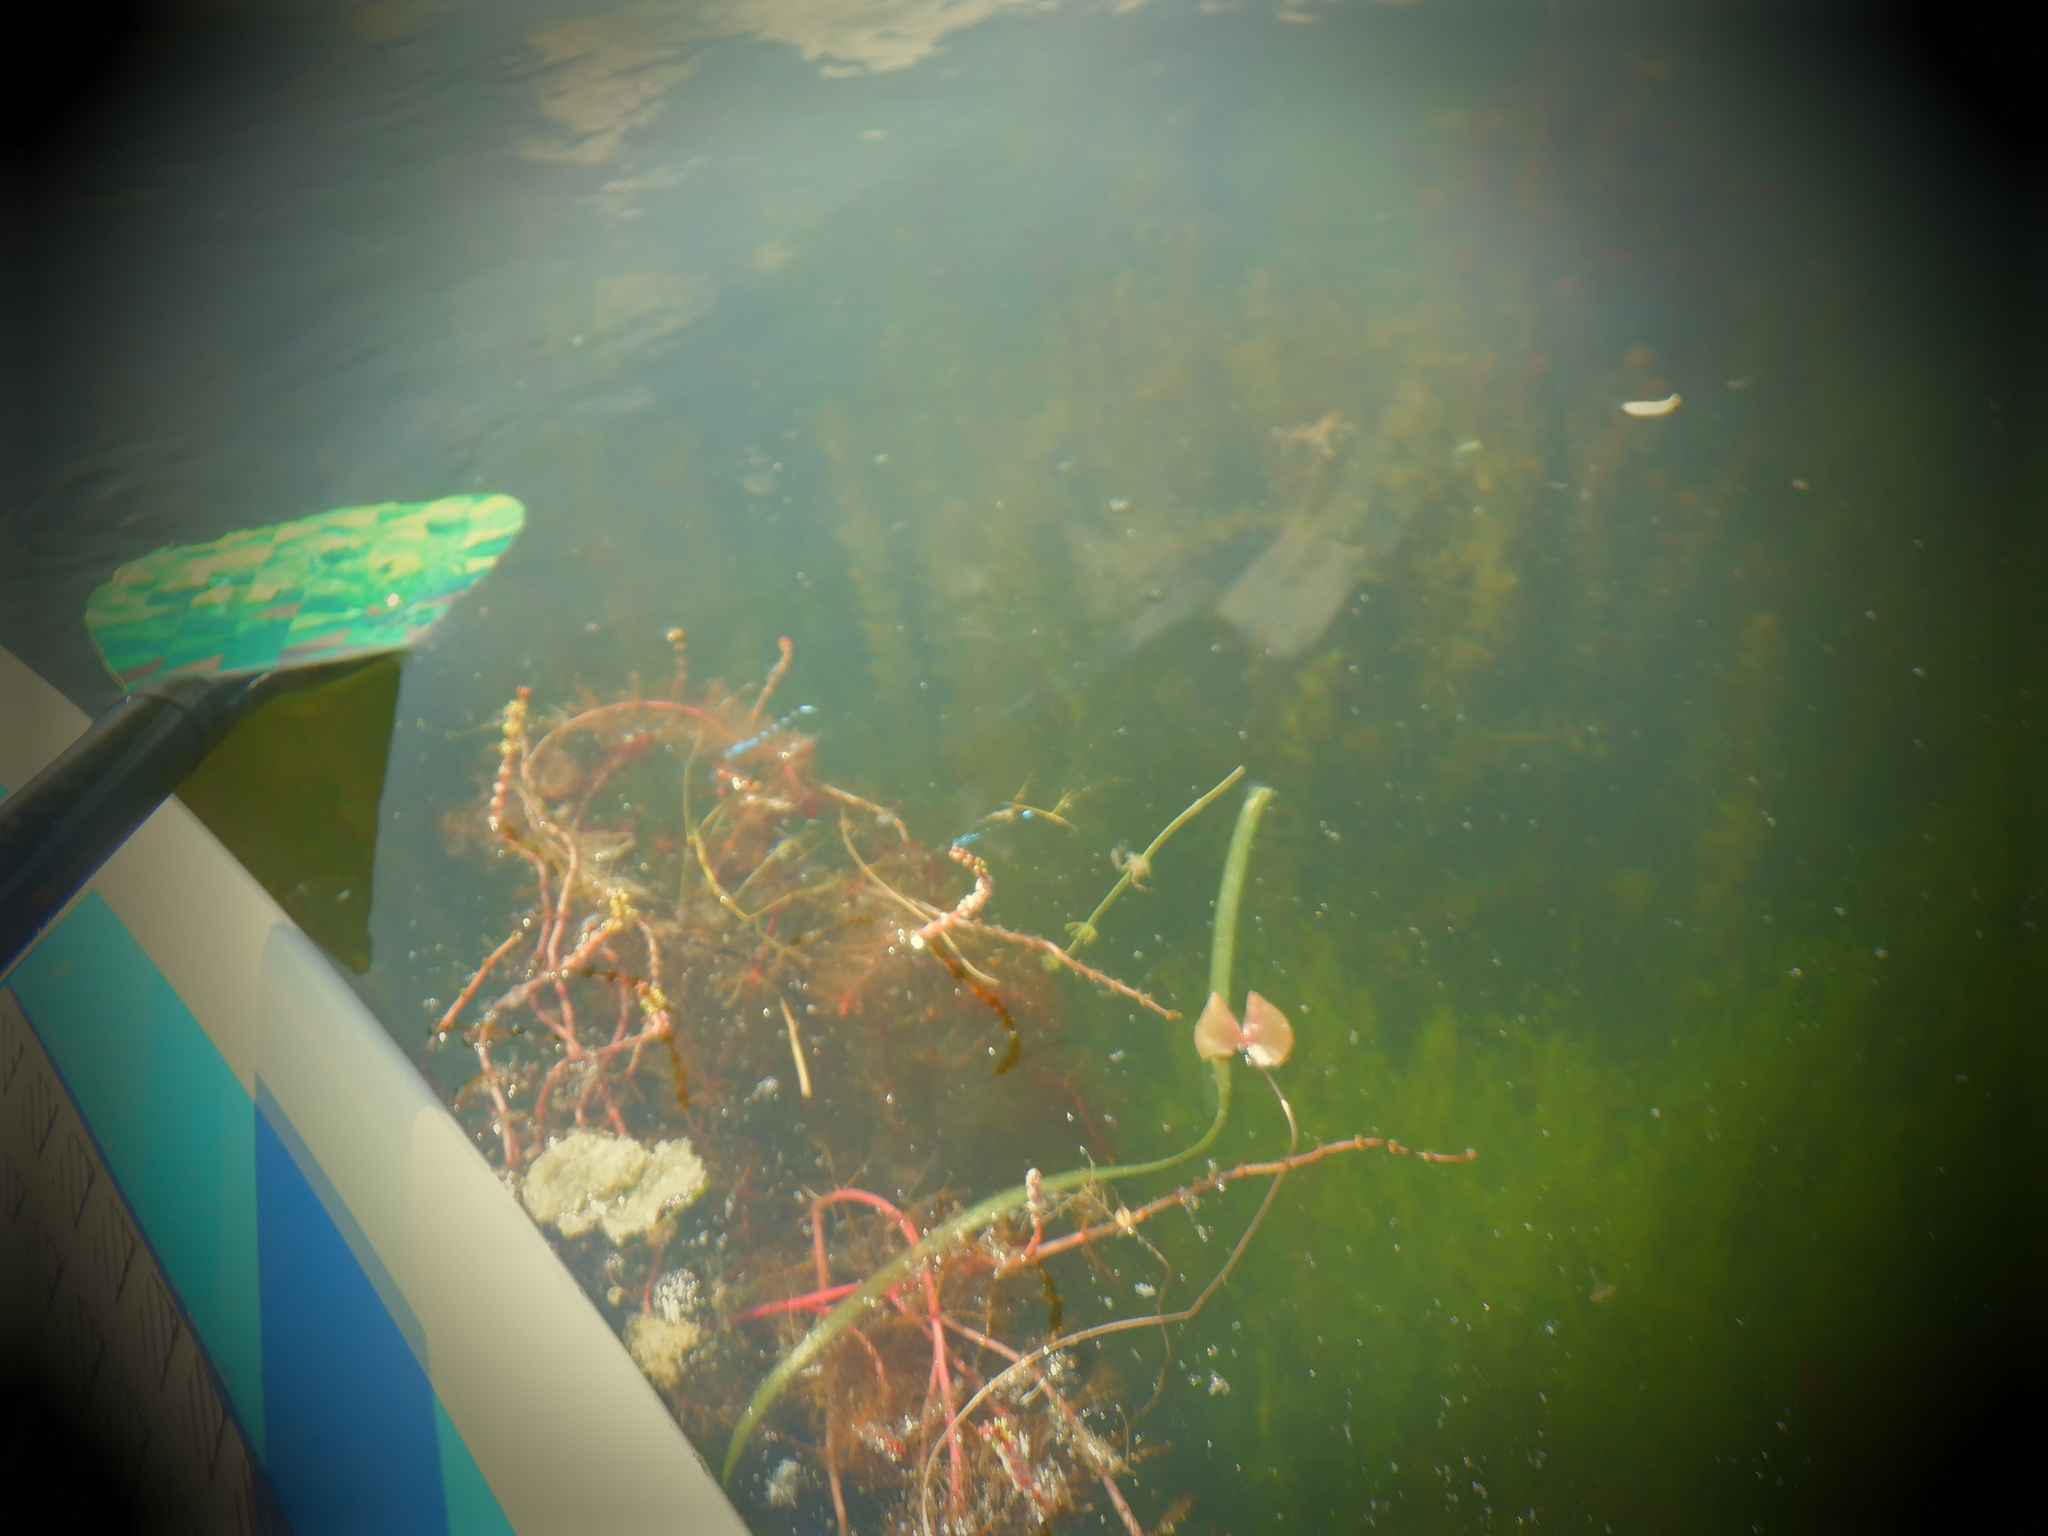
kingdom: Animalia
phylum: Arthropoda
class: Insecta
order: Odonata
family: Coenagrionidae
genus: Enallagma
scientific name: Enallagma
